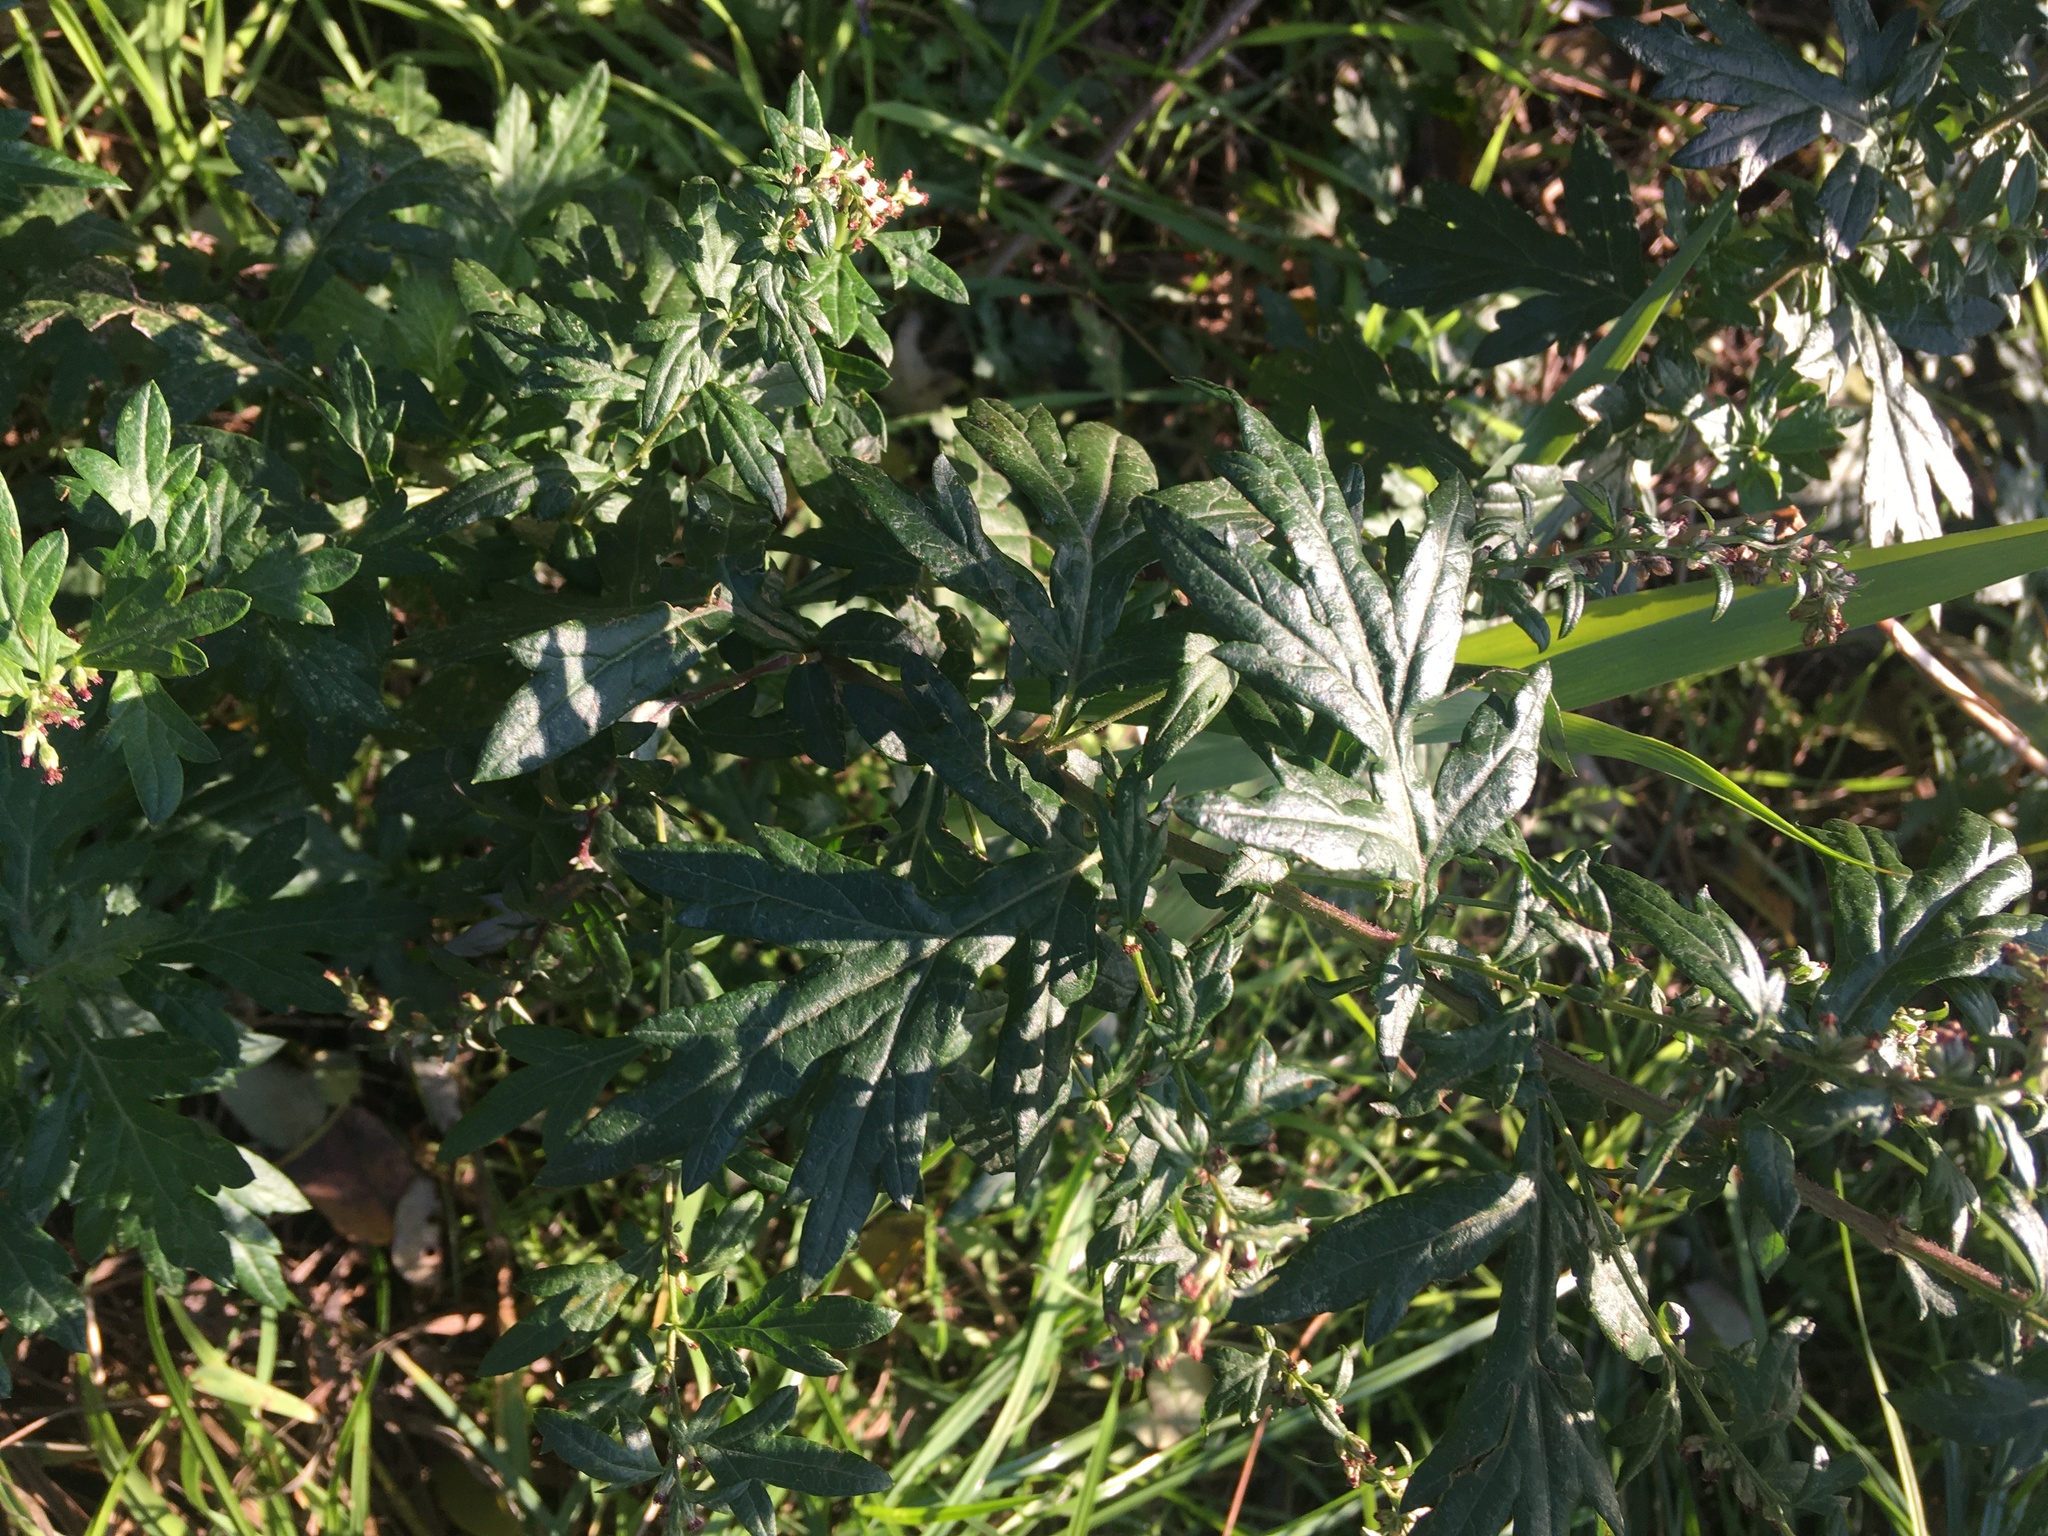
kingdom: Plantae
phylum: Tracheophyta
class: Magnoliopsida
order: Asterales
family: Asteraceae
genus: Artemisia
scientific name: Artemisia vulgaris
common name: Mugwort
